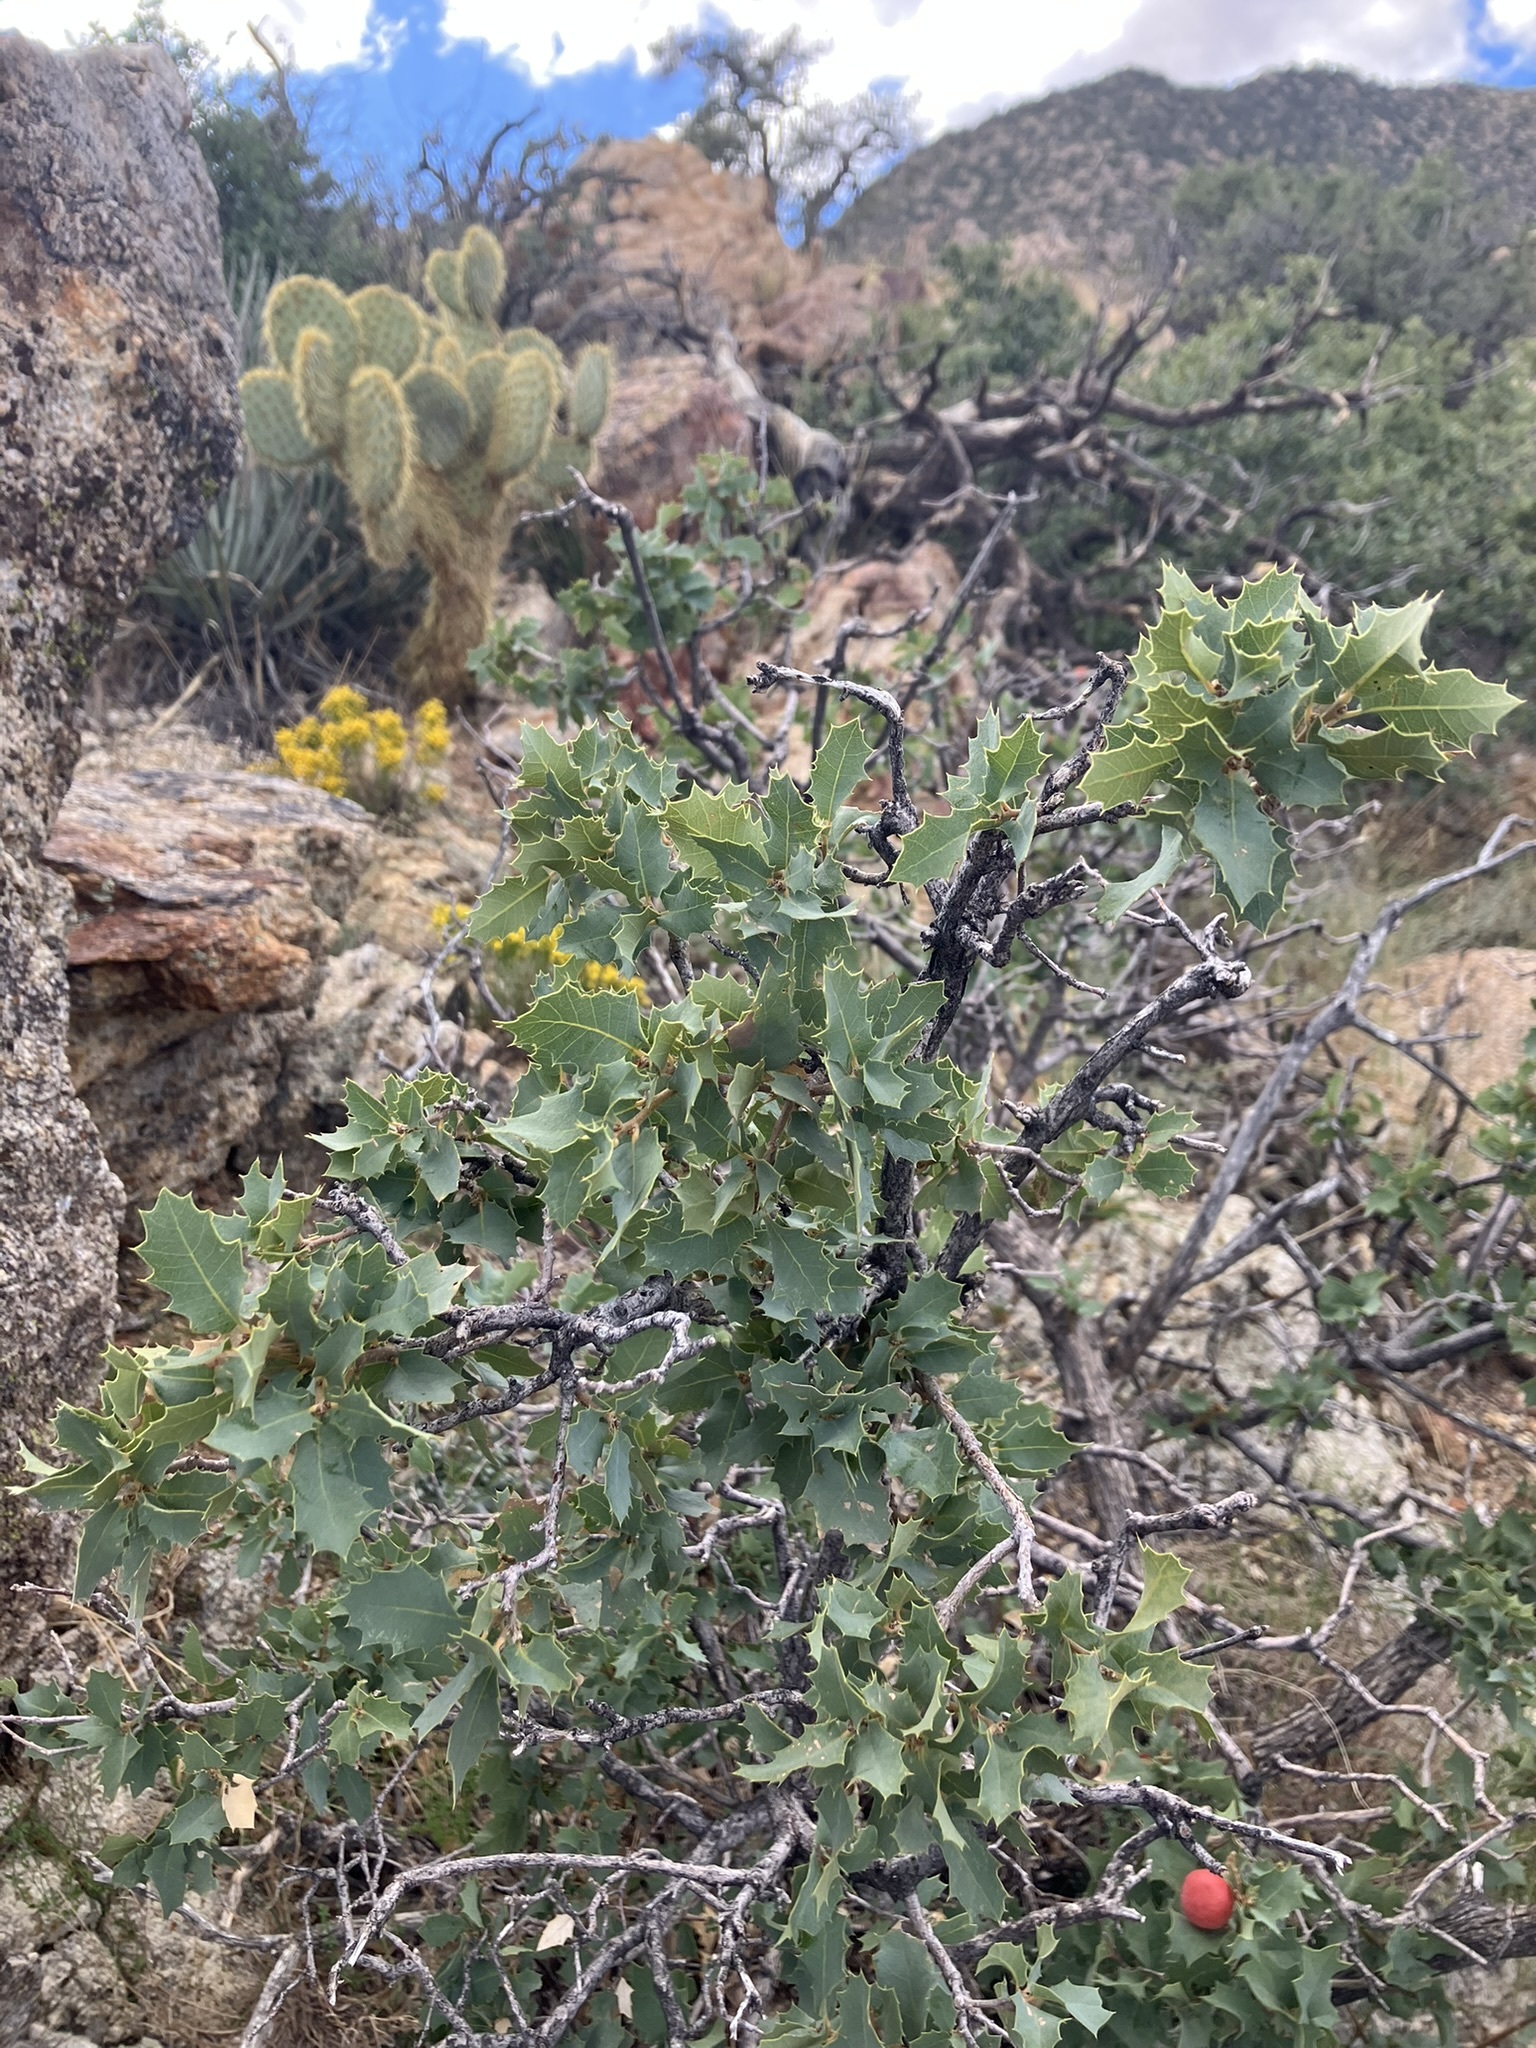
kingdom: Plantae
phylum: Tracheophyta
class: Magnoliopsida
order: Fagales
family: Fagaceae
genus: Quercus
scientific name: Quercus turbinella
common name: Sonoran scrub oak
